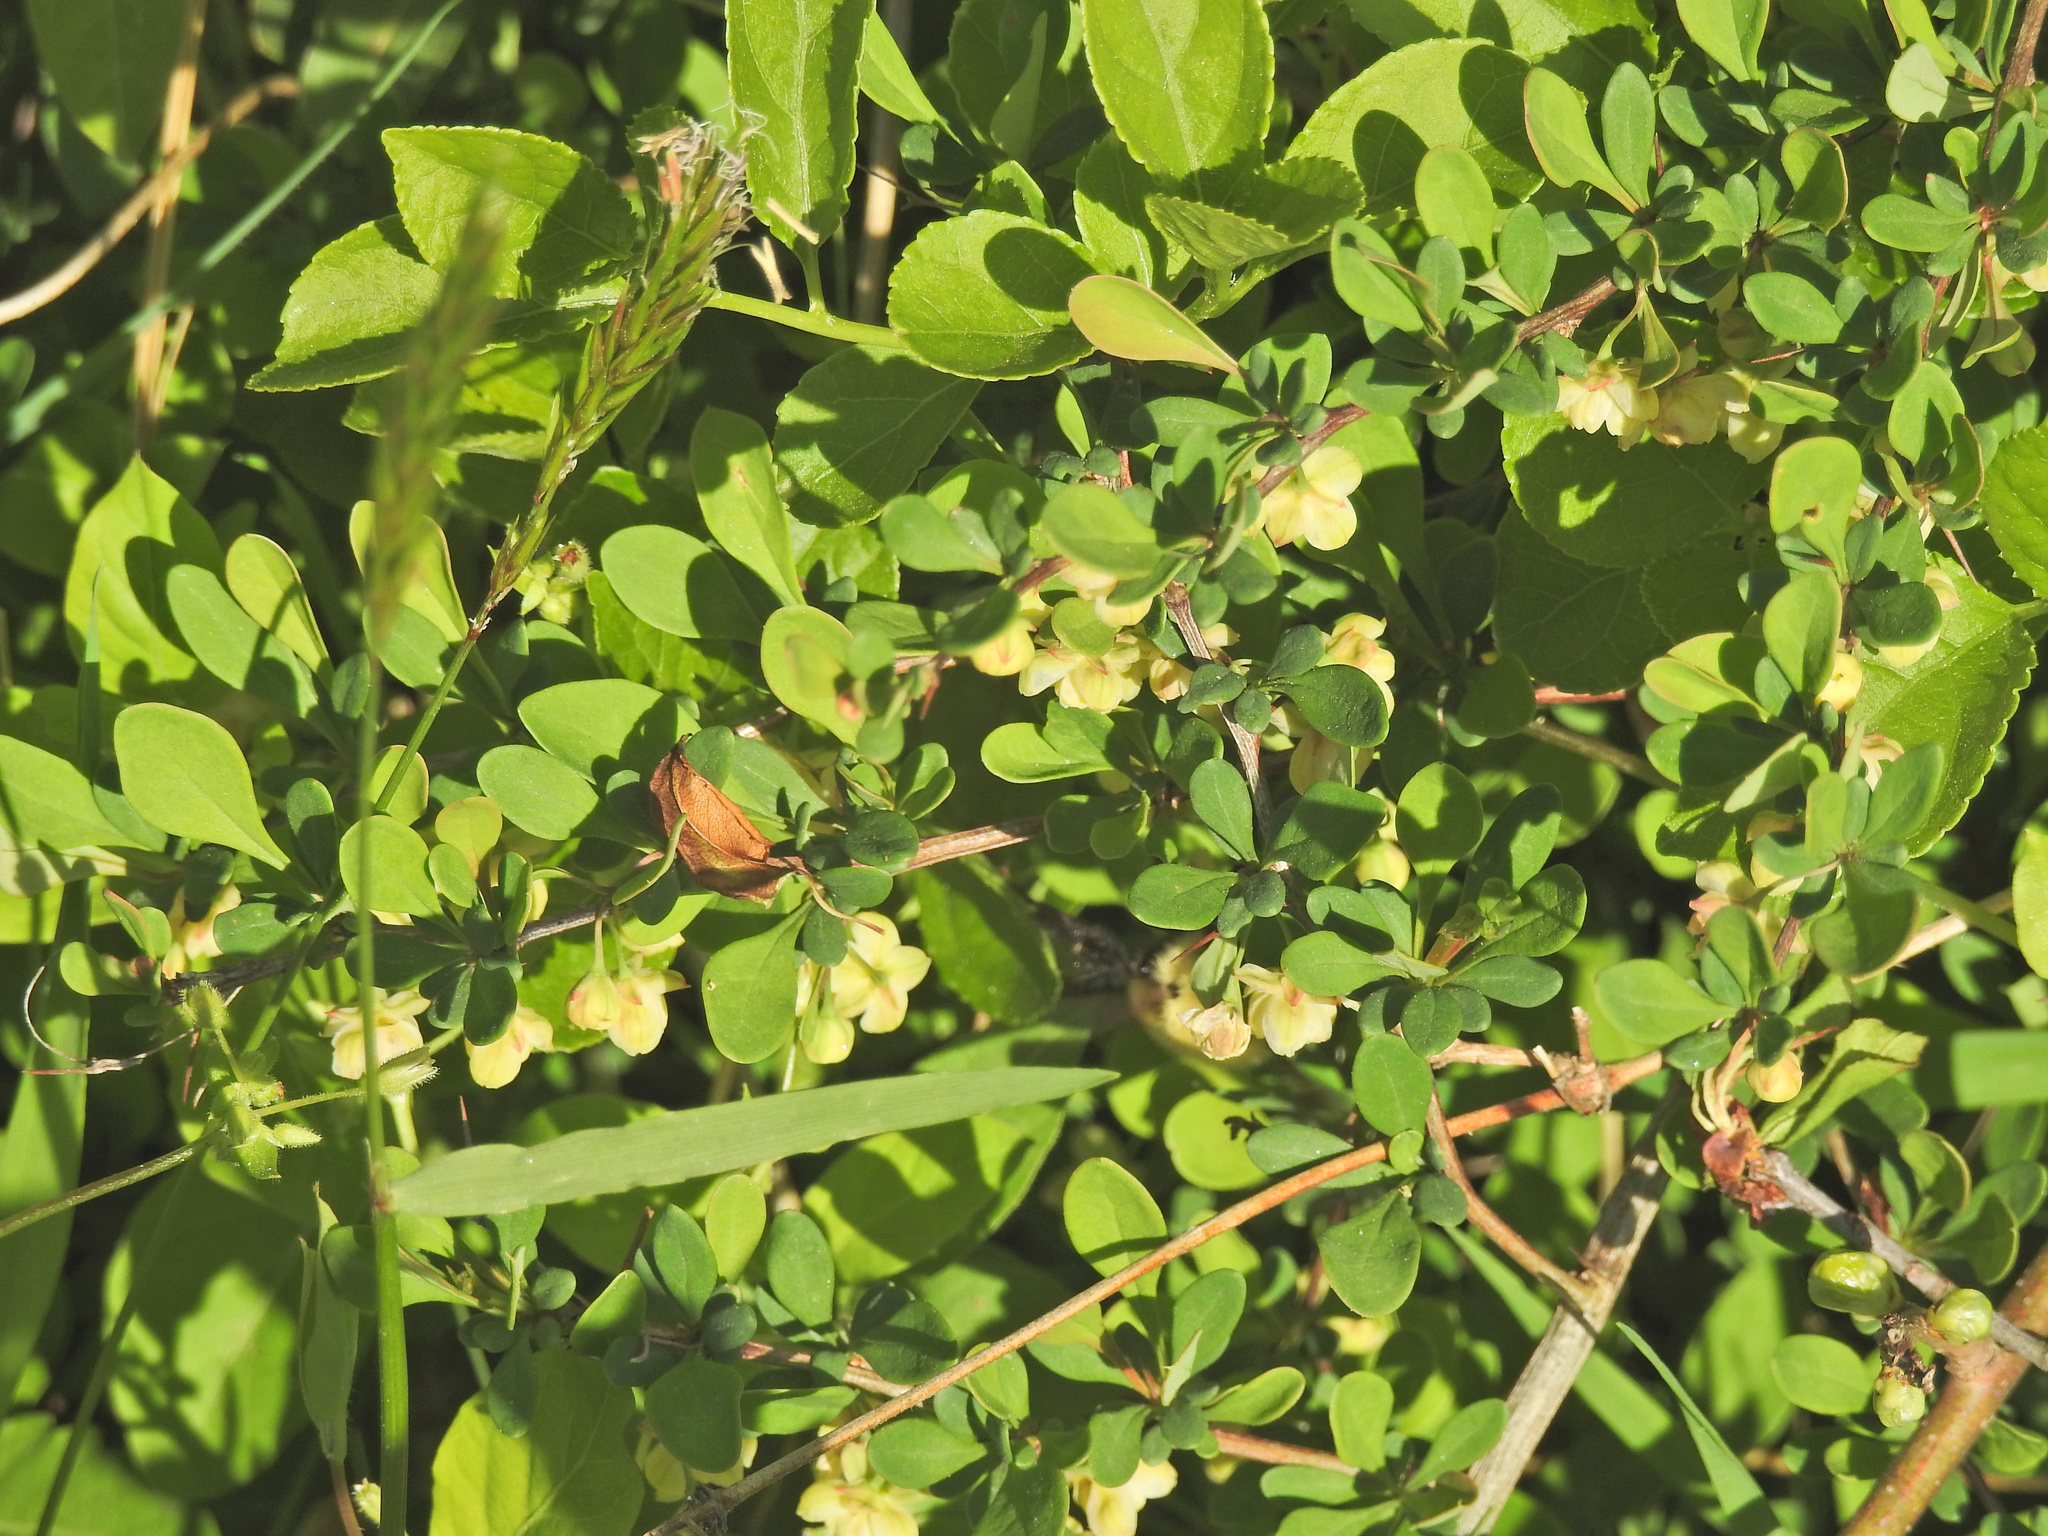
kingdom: Plantae
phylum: Tracheophyta
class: Magnoliopsida
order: Ranunculales
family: Berberidaceae
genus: Berberis
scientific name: Berberis thunbergii
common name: Japanese barberry
